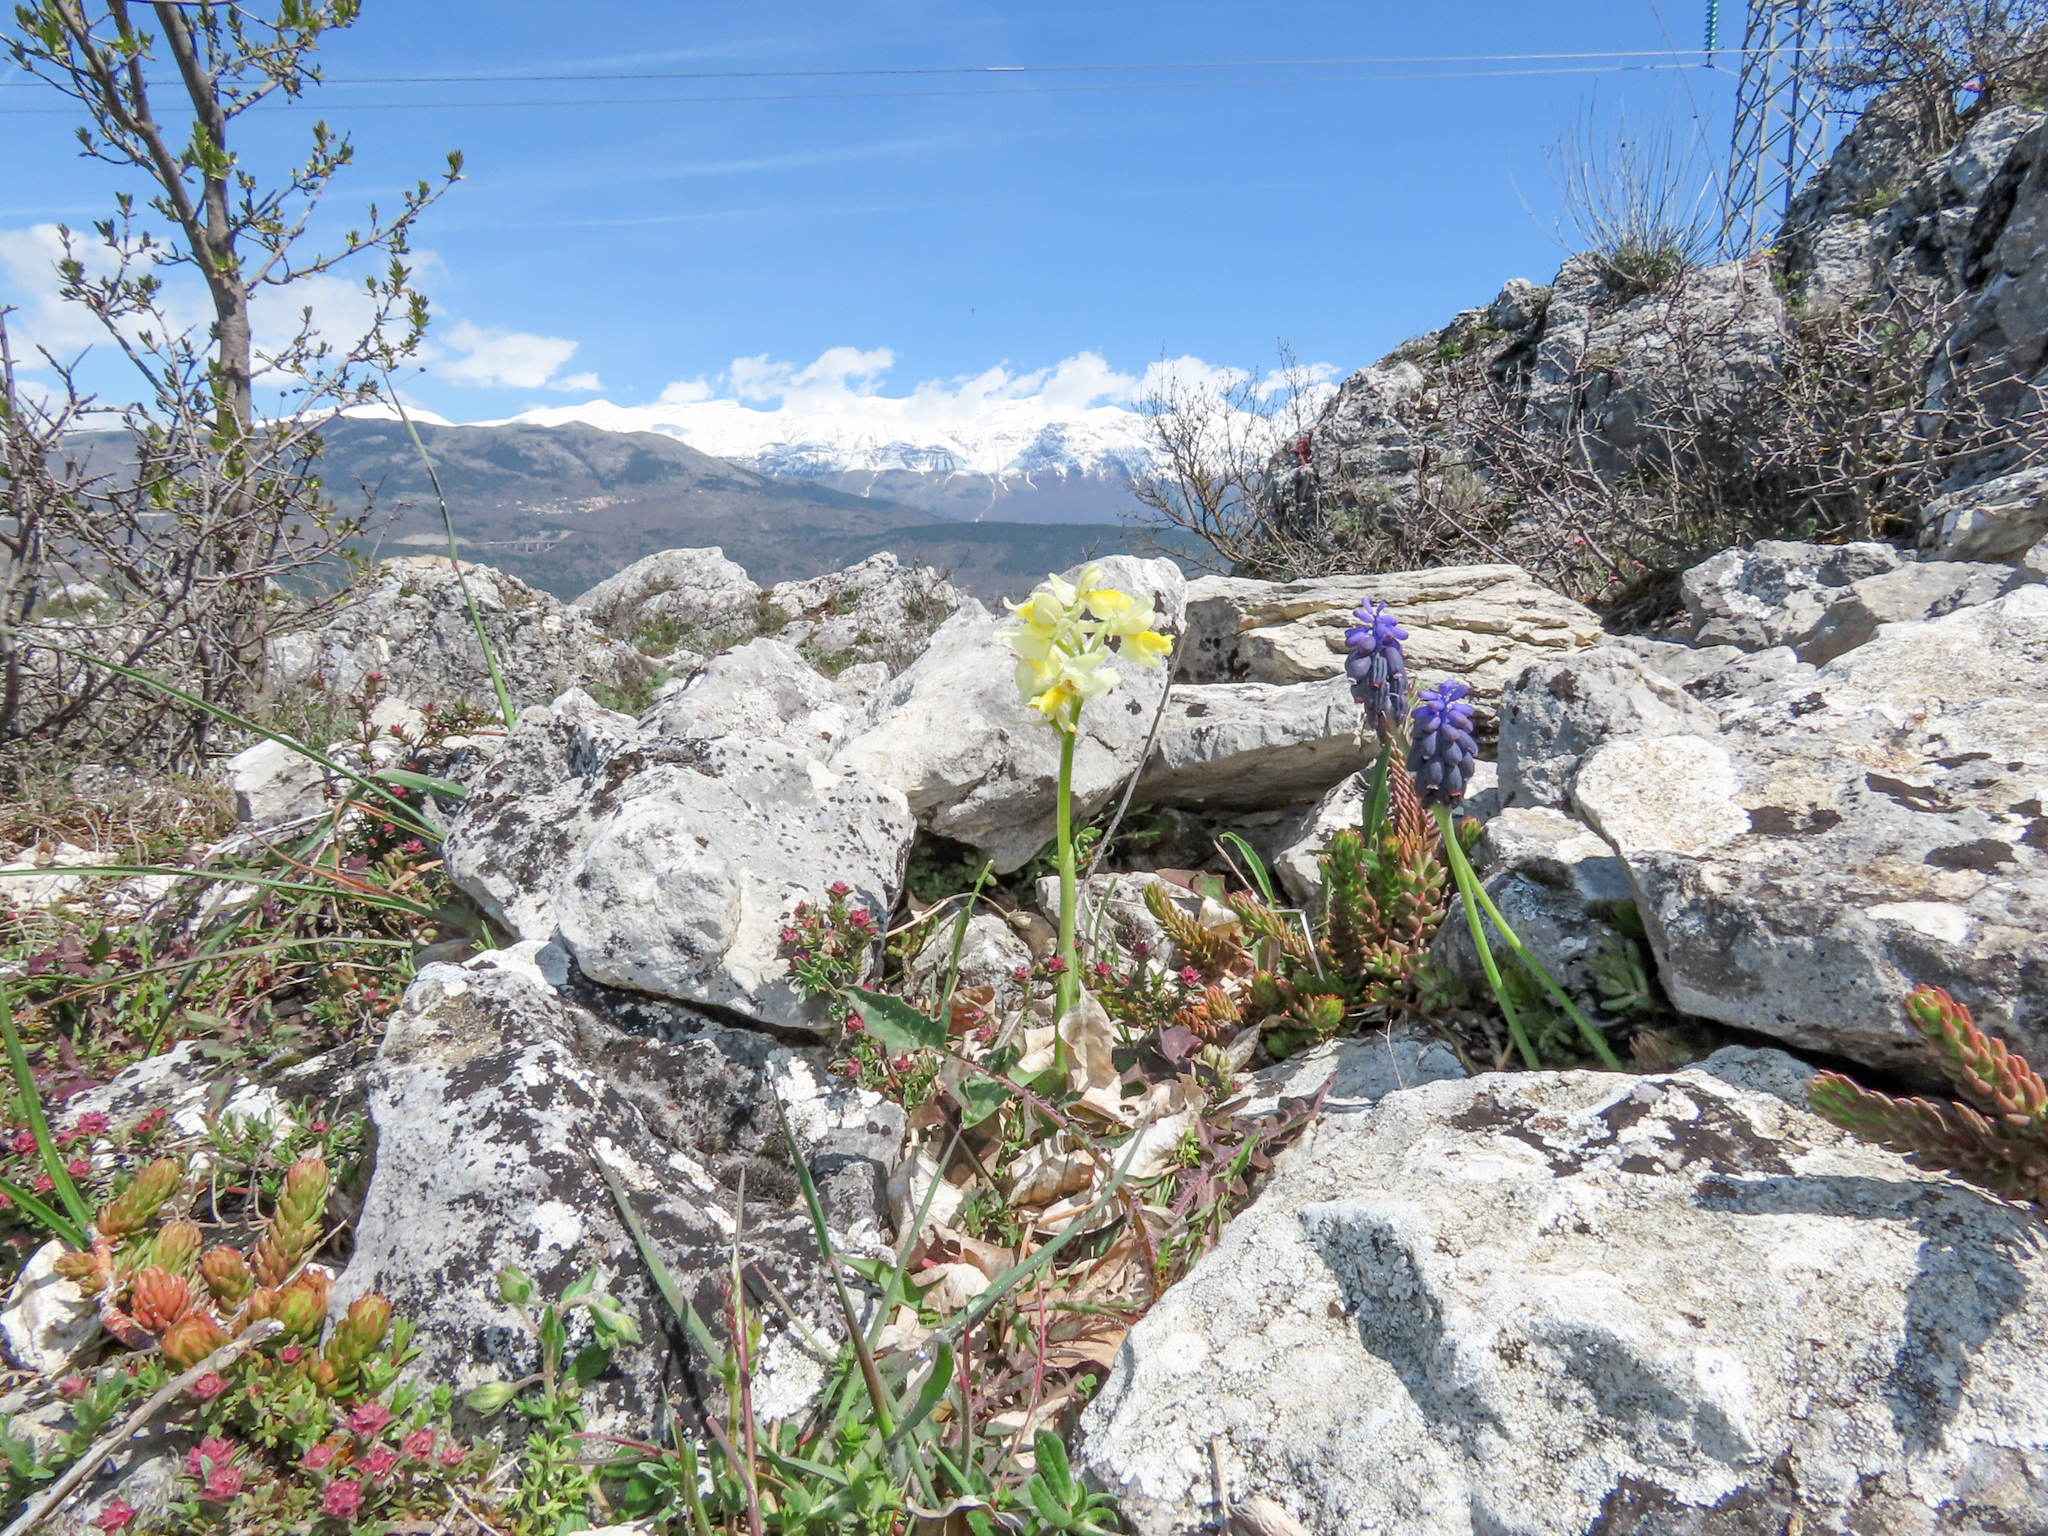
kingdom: Plantae
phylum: Tracheophyta
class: Liliopsida
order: Asparagales
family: Orchidaceae
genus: Orchis
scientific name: Orchis pauciflora
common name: Few-flowered orchid
